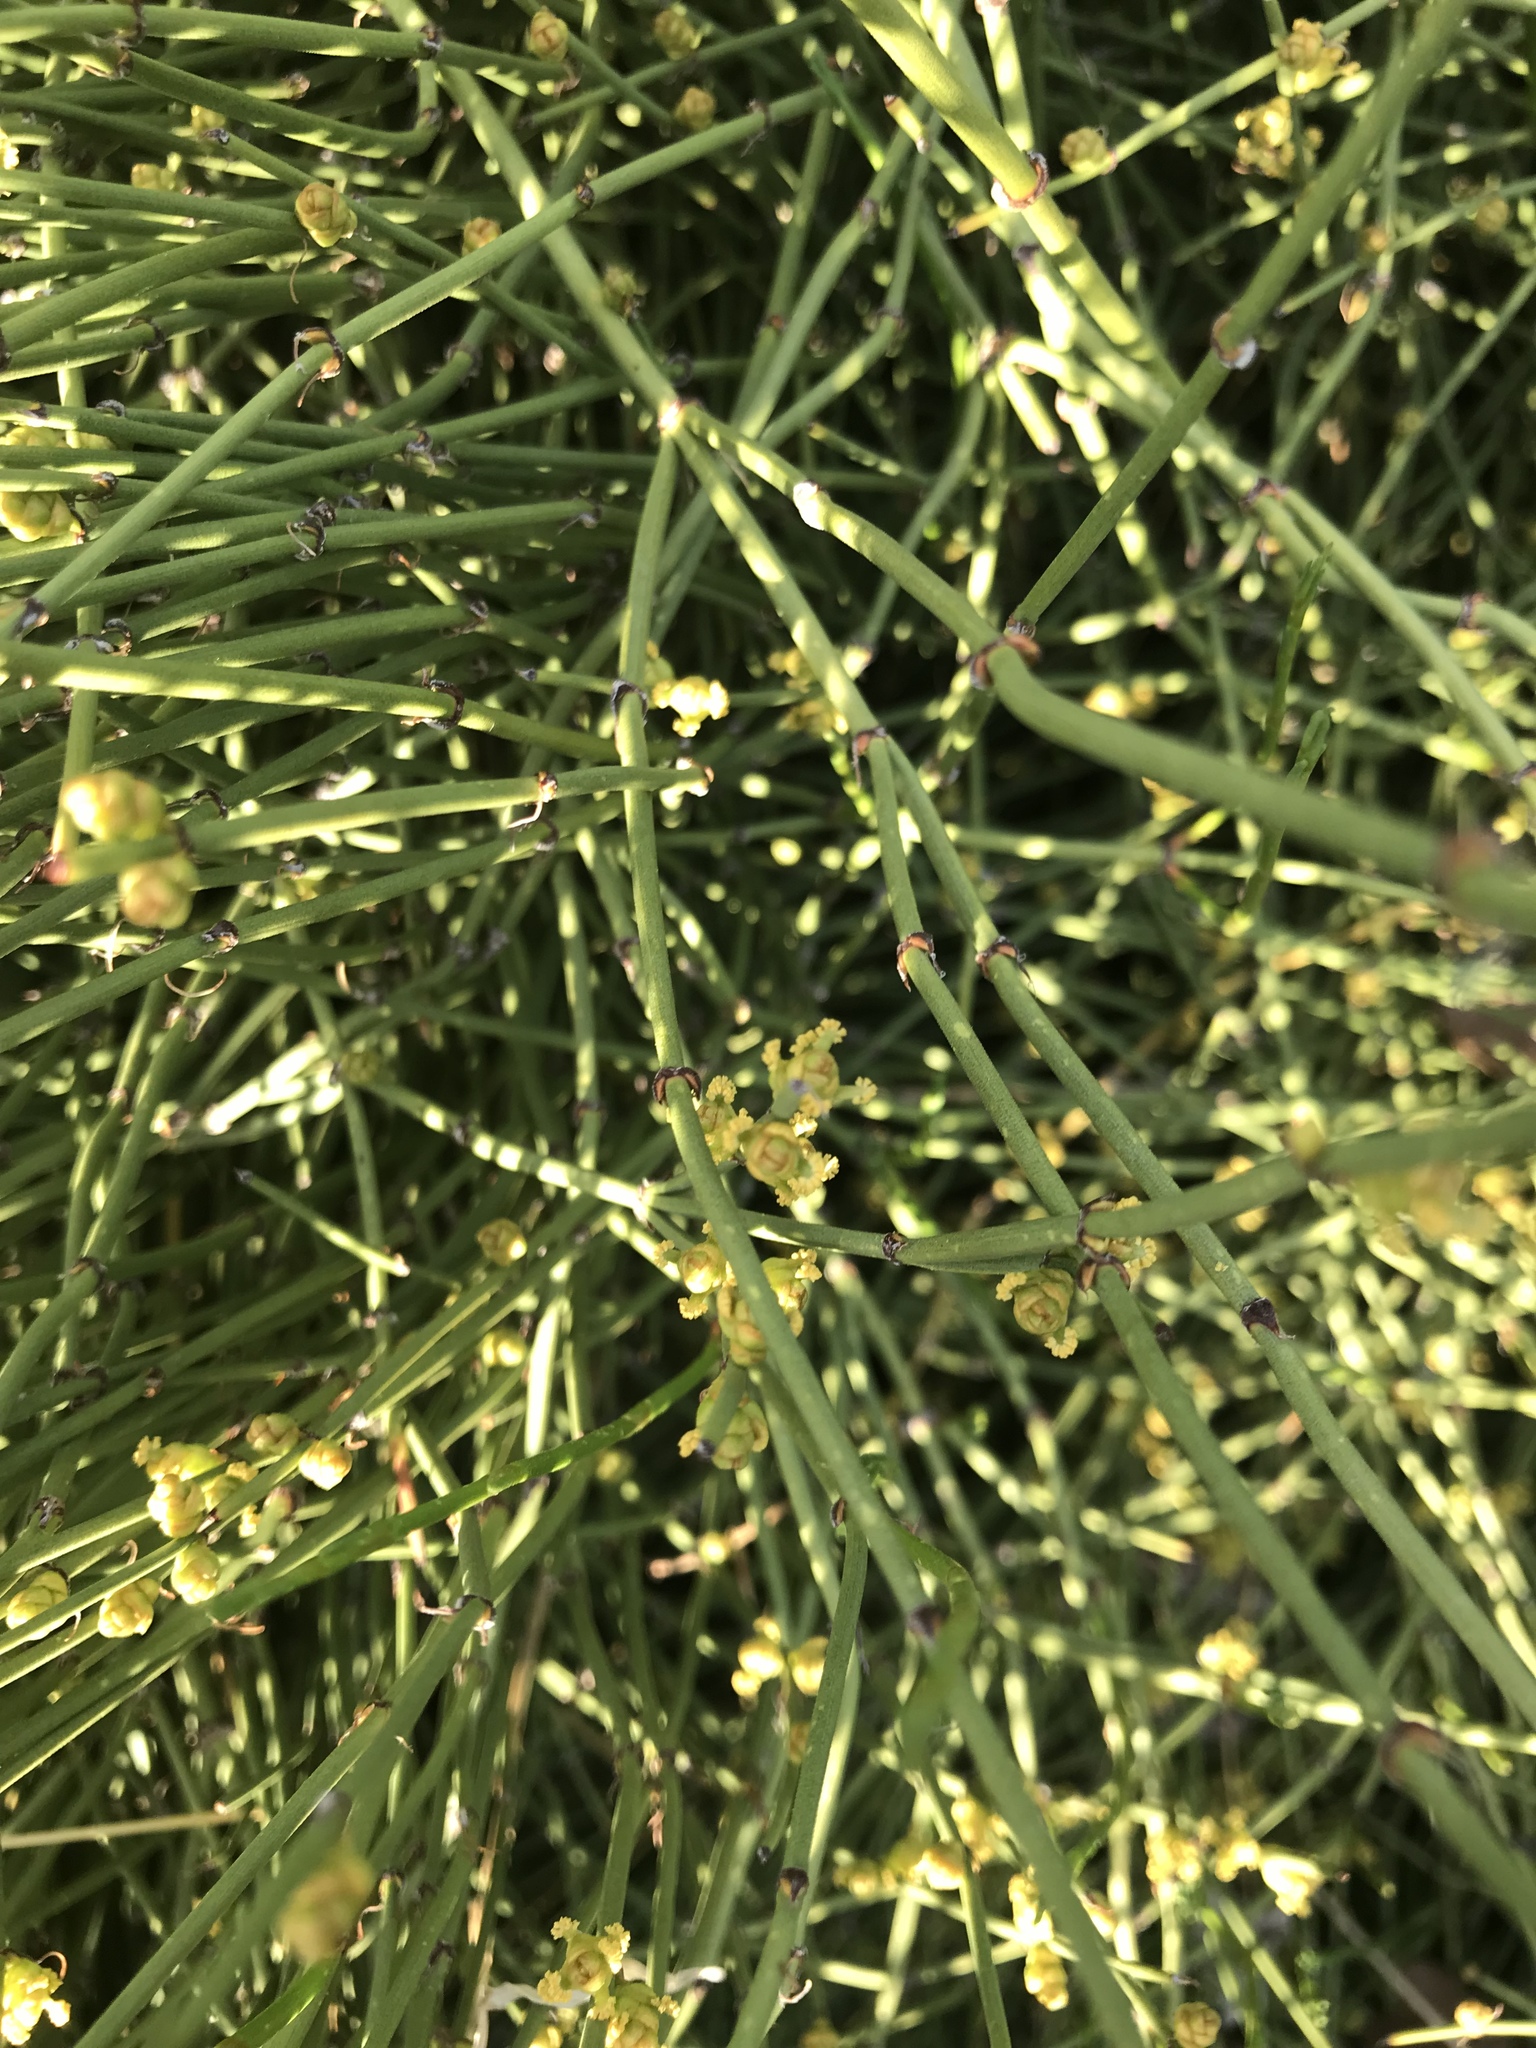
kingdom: Plantae
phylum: Tracheophyta
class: Gnetopsida
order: Ephedrales
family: Ephedraceae
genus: Ephedra
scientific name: Ephedra viridis
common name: Green ephedra
